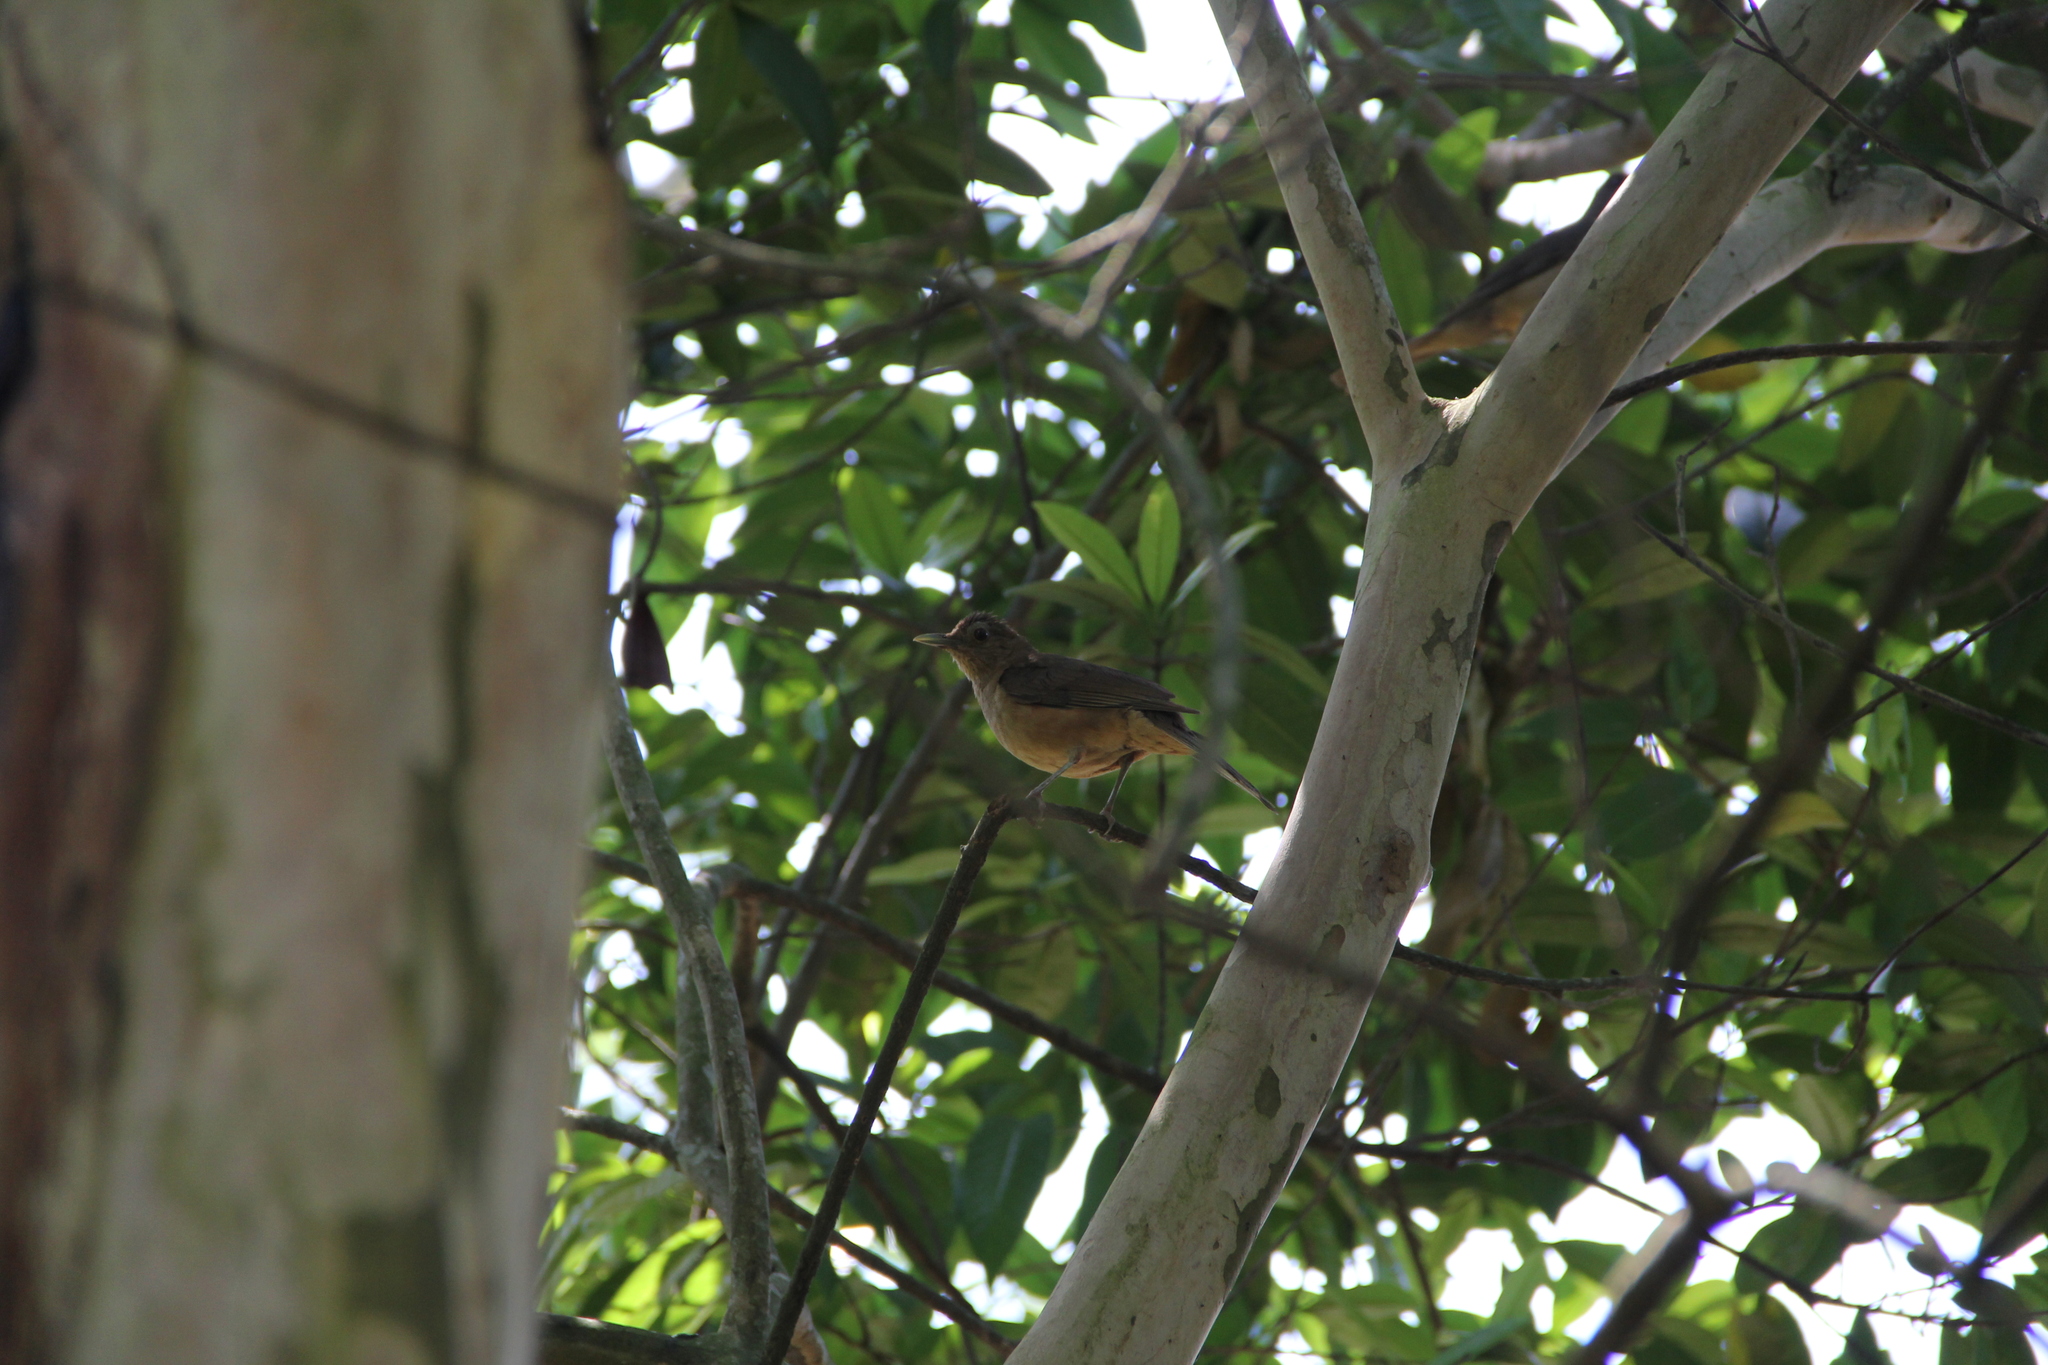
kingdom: Animalia
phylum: Chordata
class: Aves
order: Passeriformes
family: Turdidae
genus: Turdus
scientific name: Turdus grayi
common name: Clay-colored thrush
